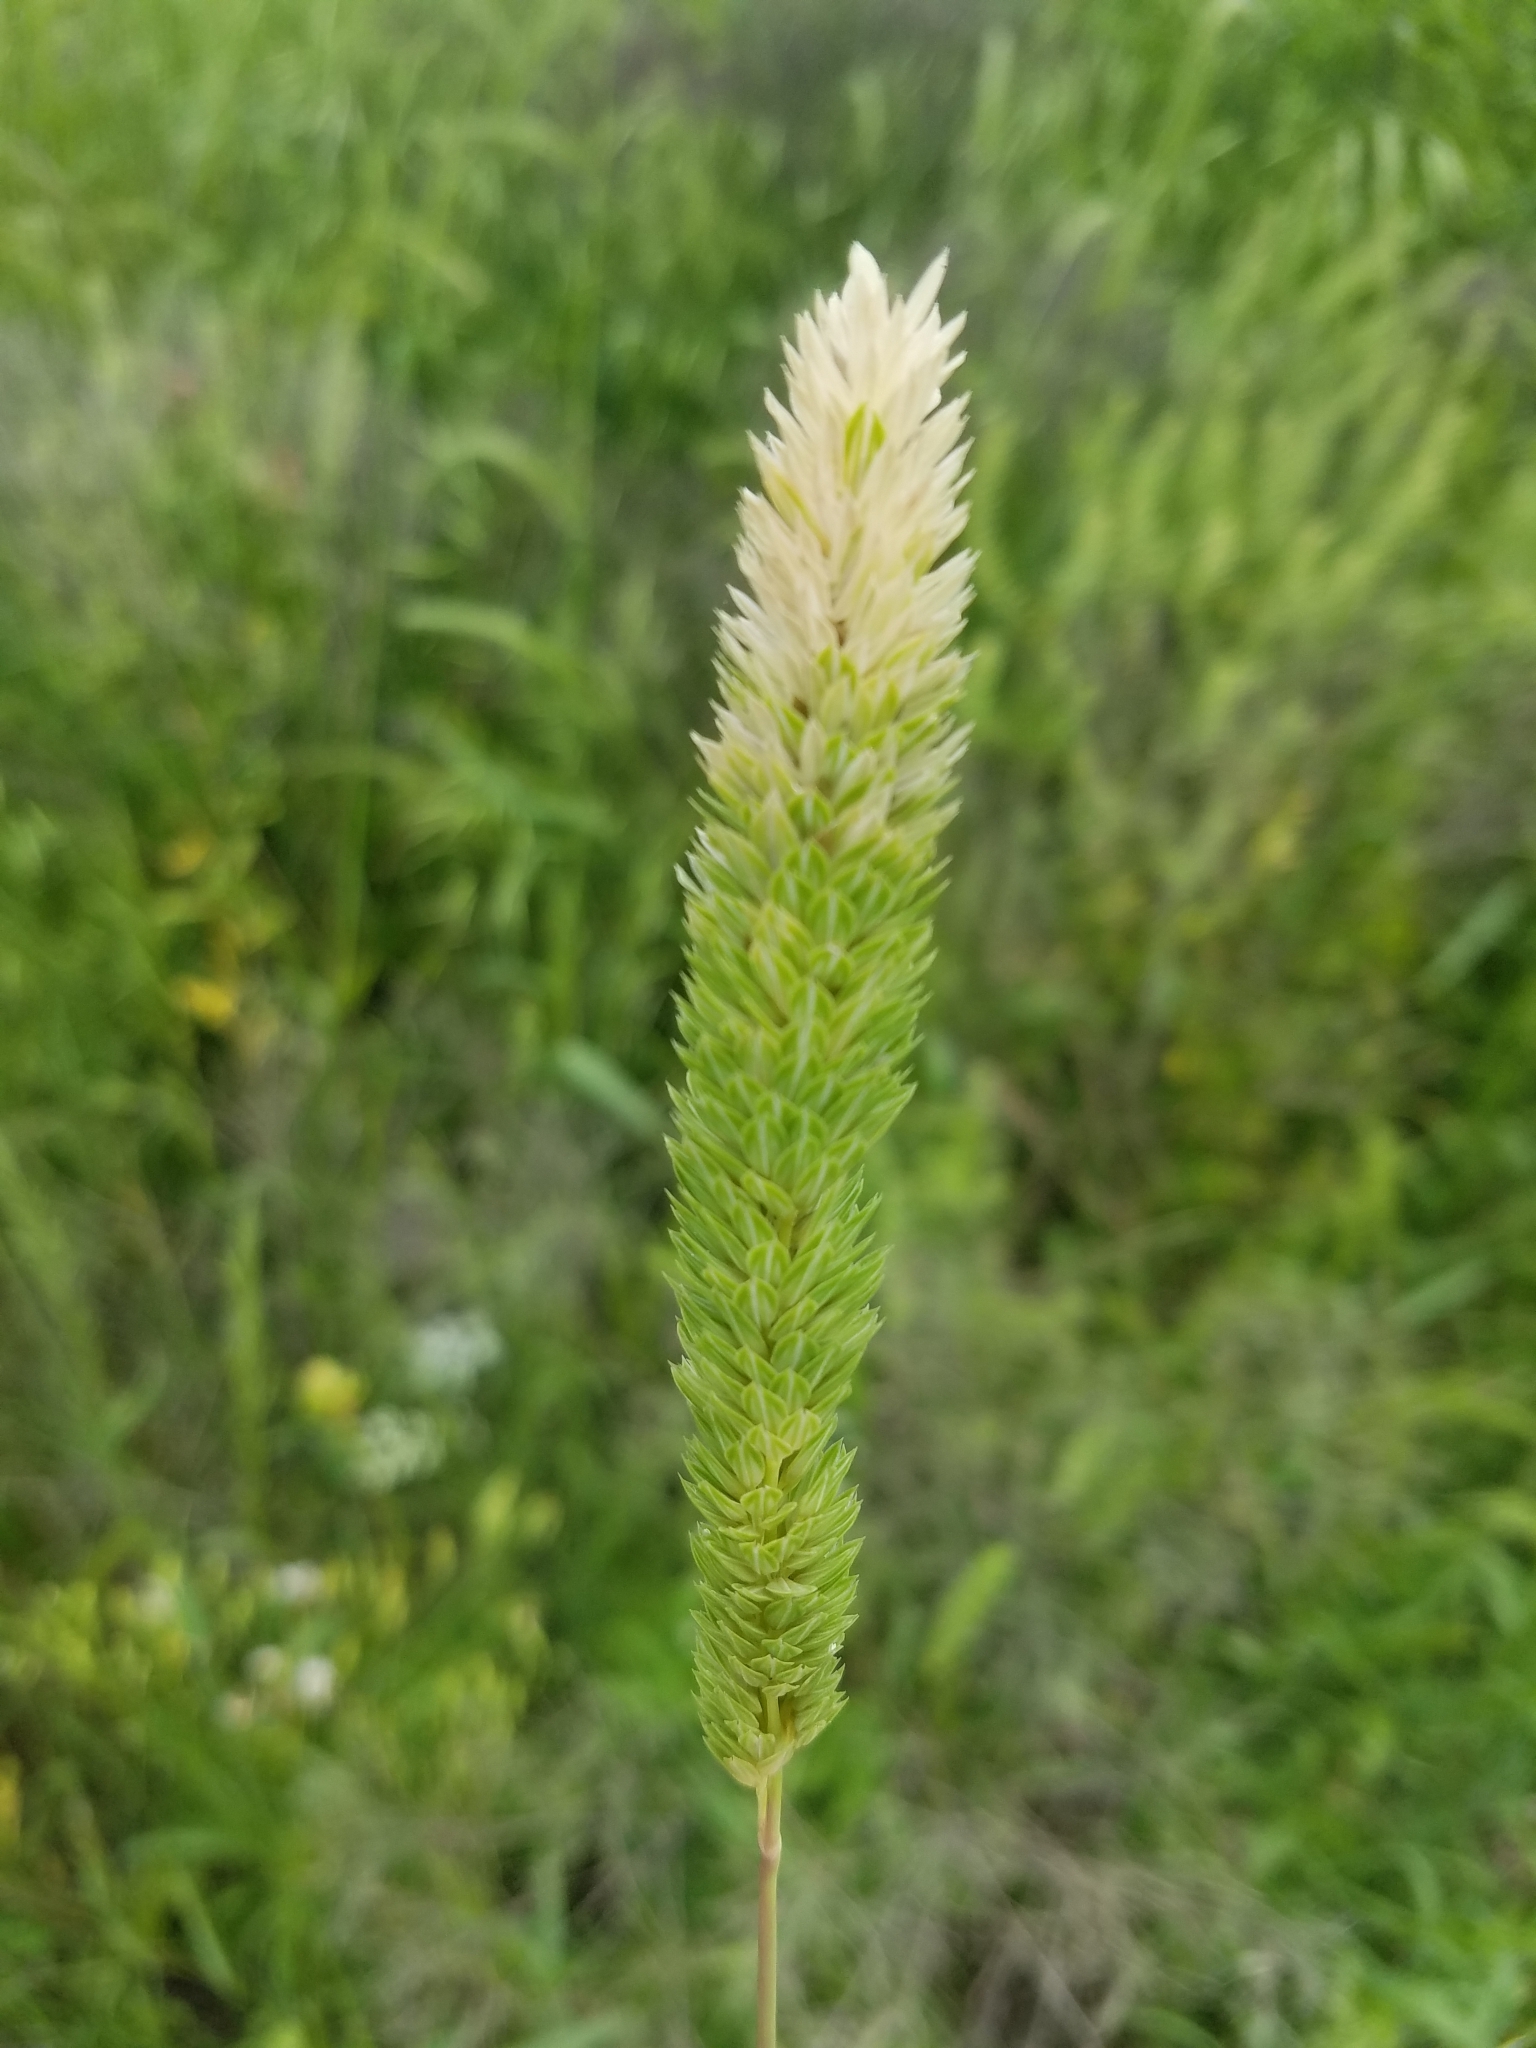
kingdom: Plantae
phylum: Tracheophyta
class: Liliopsida
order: Poales
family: Poaceae
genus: Phalaris
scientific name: Phalaris caroliniana
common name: May grass
